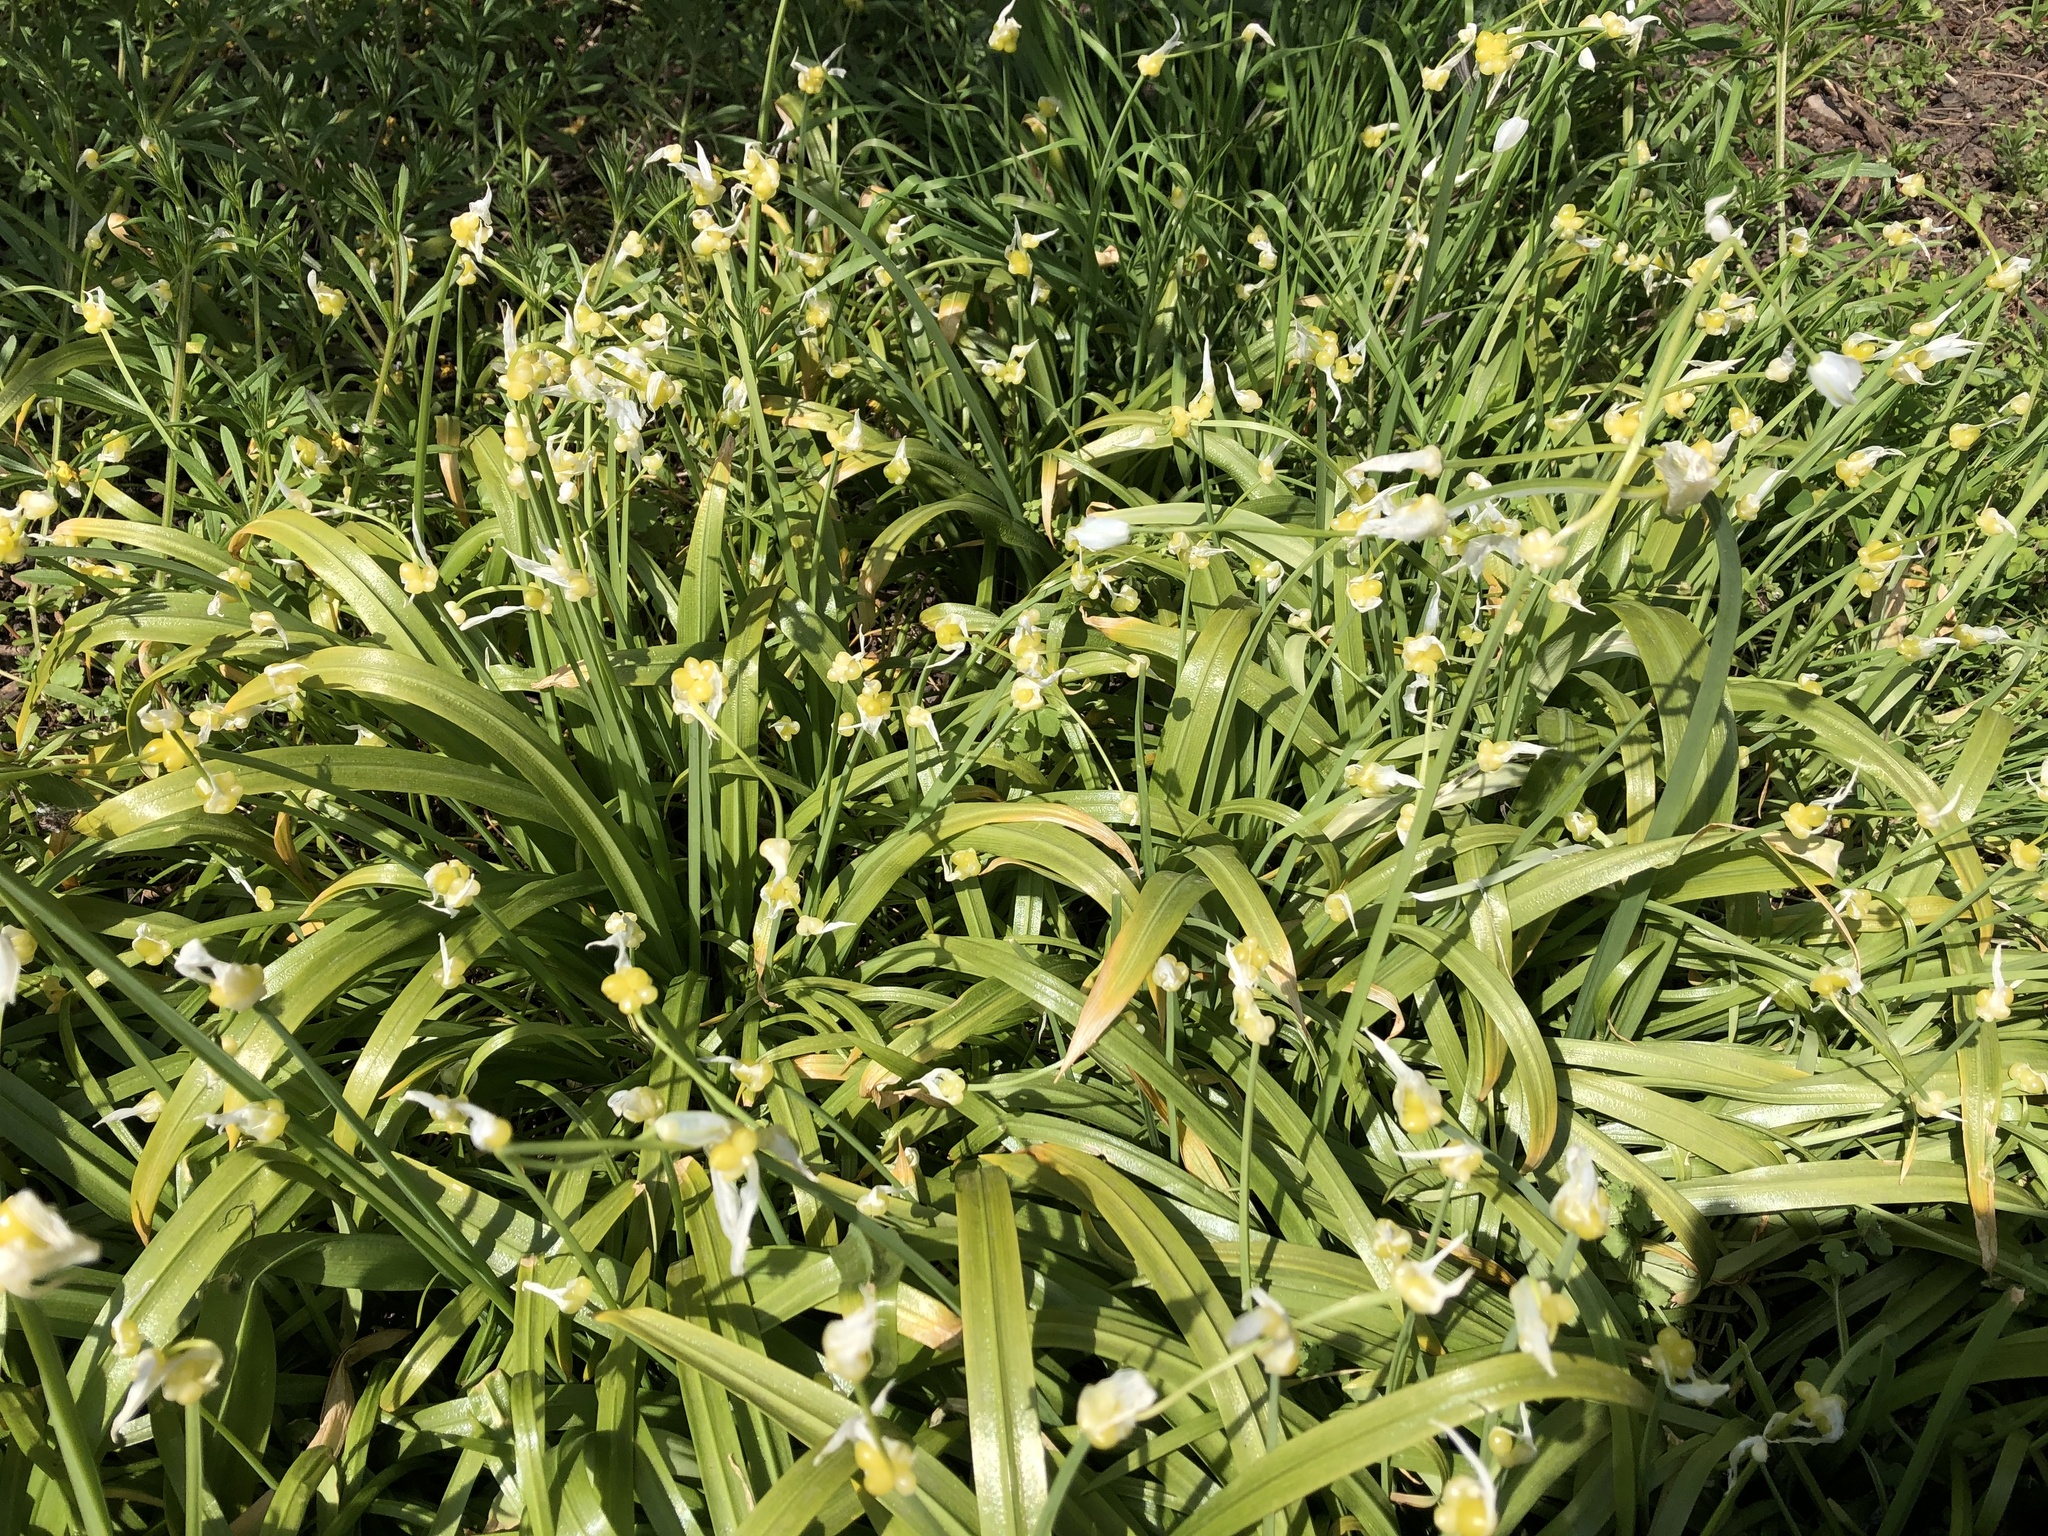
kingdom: Plantae
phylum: Tracheophyta
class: Liliopsida
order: Asparagales
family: Amaryllidaceae
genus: Allium
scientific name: Allium paradoxum
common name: Few-flowered garlic
